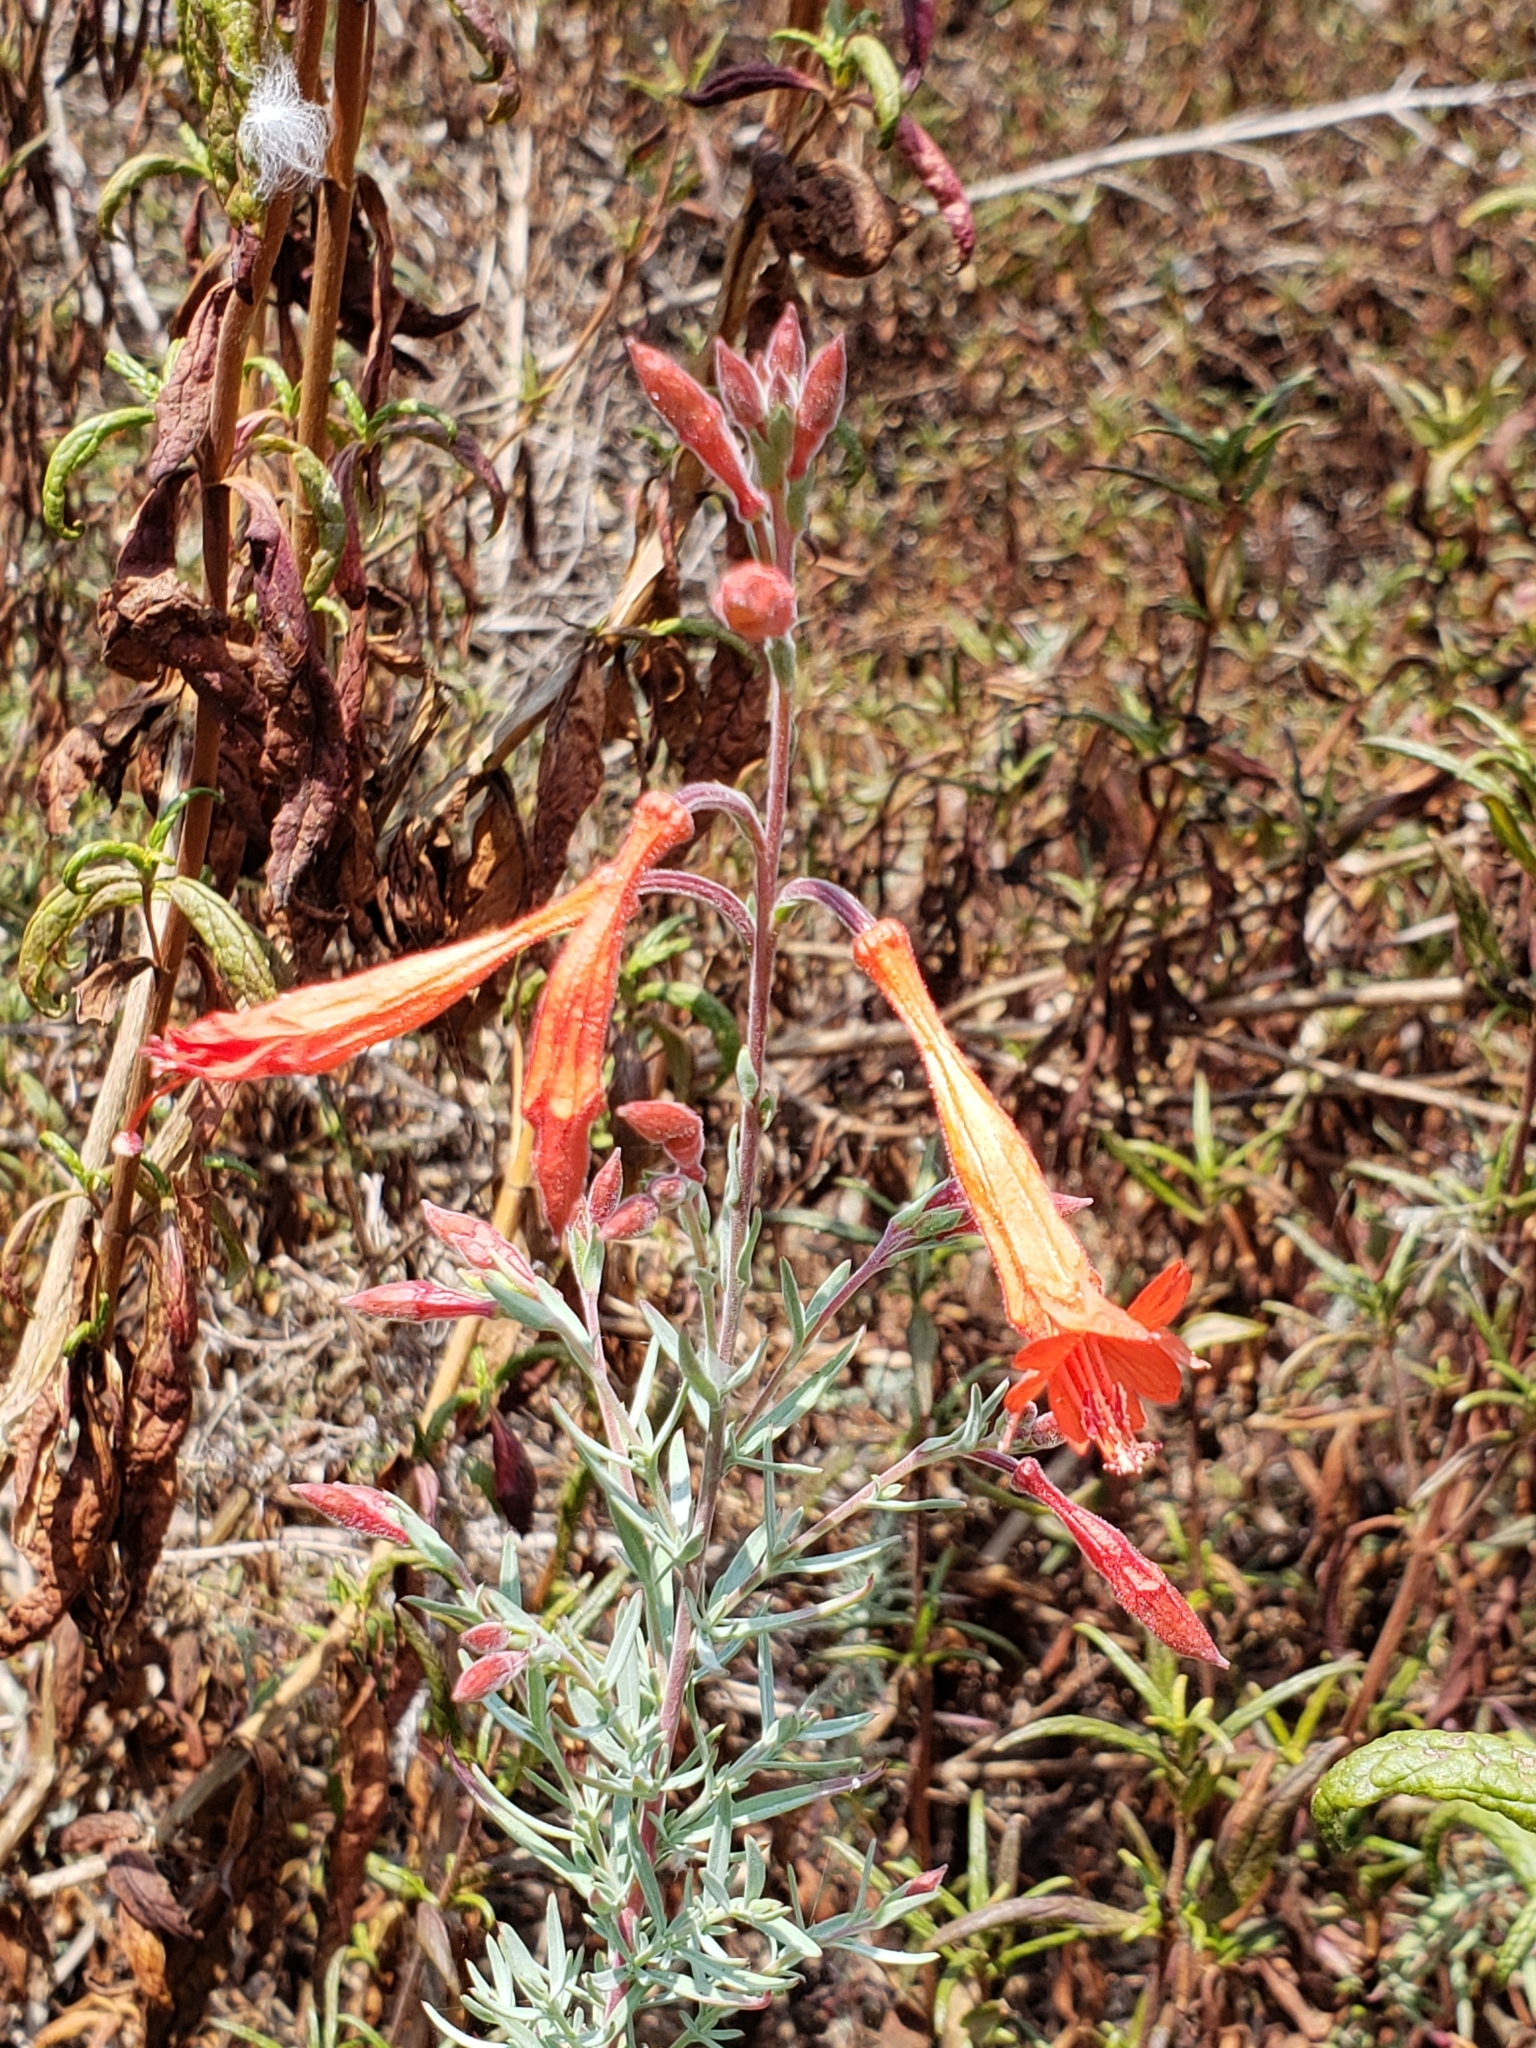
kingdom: Plantae
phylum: Tracheophyta
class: Magnoliopsida
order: Myrtales
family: Onagraceae
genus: Epilobium
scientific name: Epilobium canum
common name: California-fuchsia
